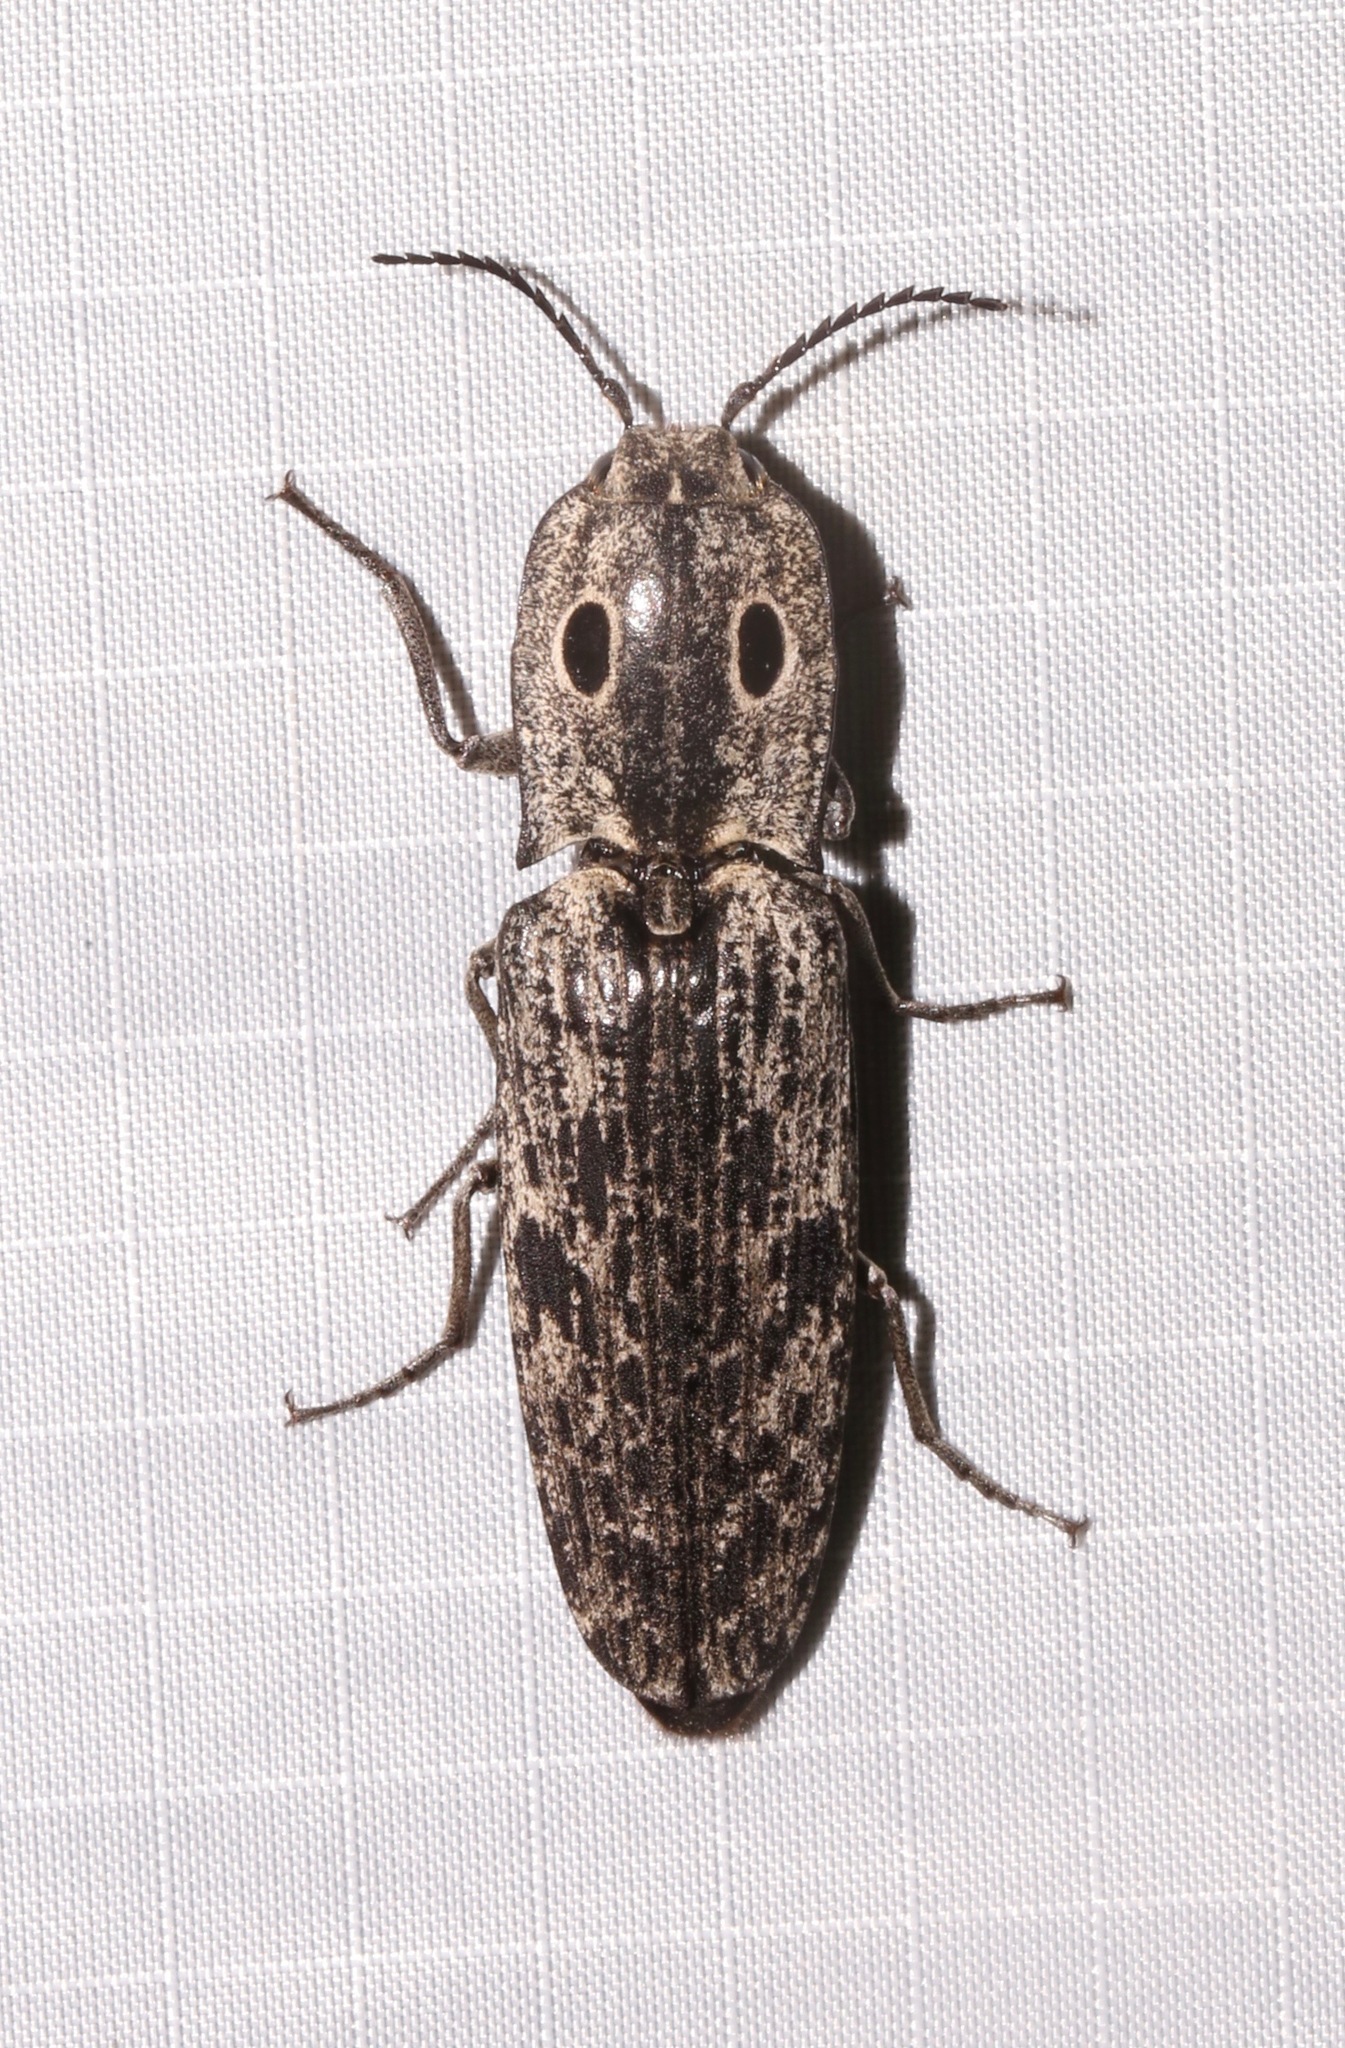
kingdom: Animalia
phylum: Arthropoda
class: Insecta
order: Coleoptera
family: Elateridae
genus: Alaus
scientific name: Alaus myops
